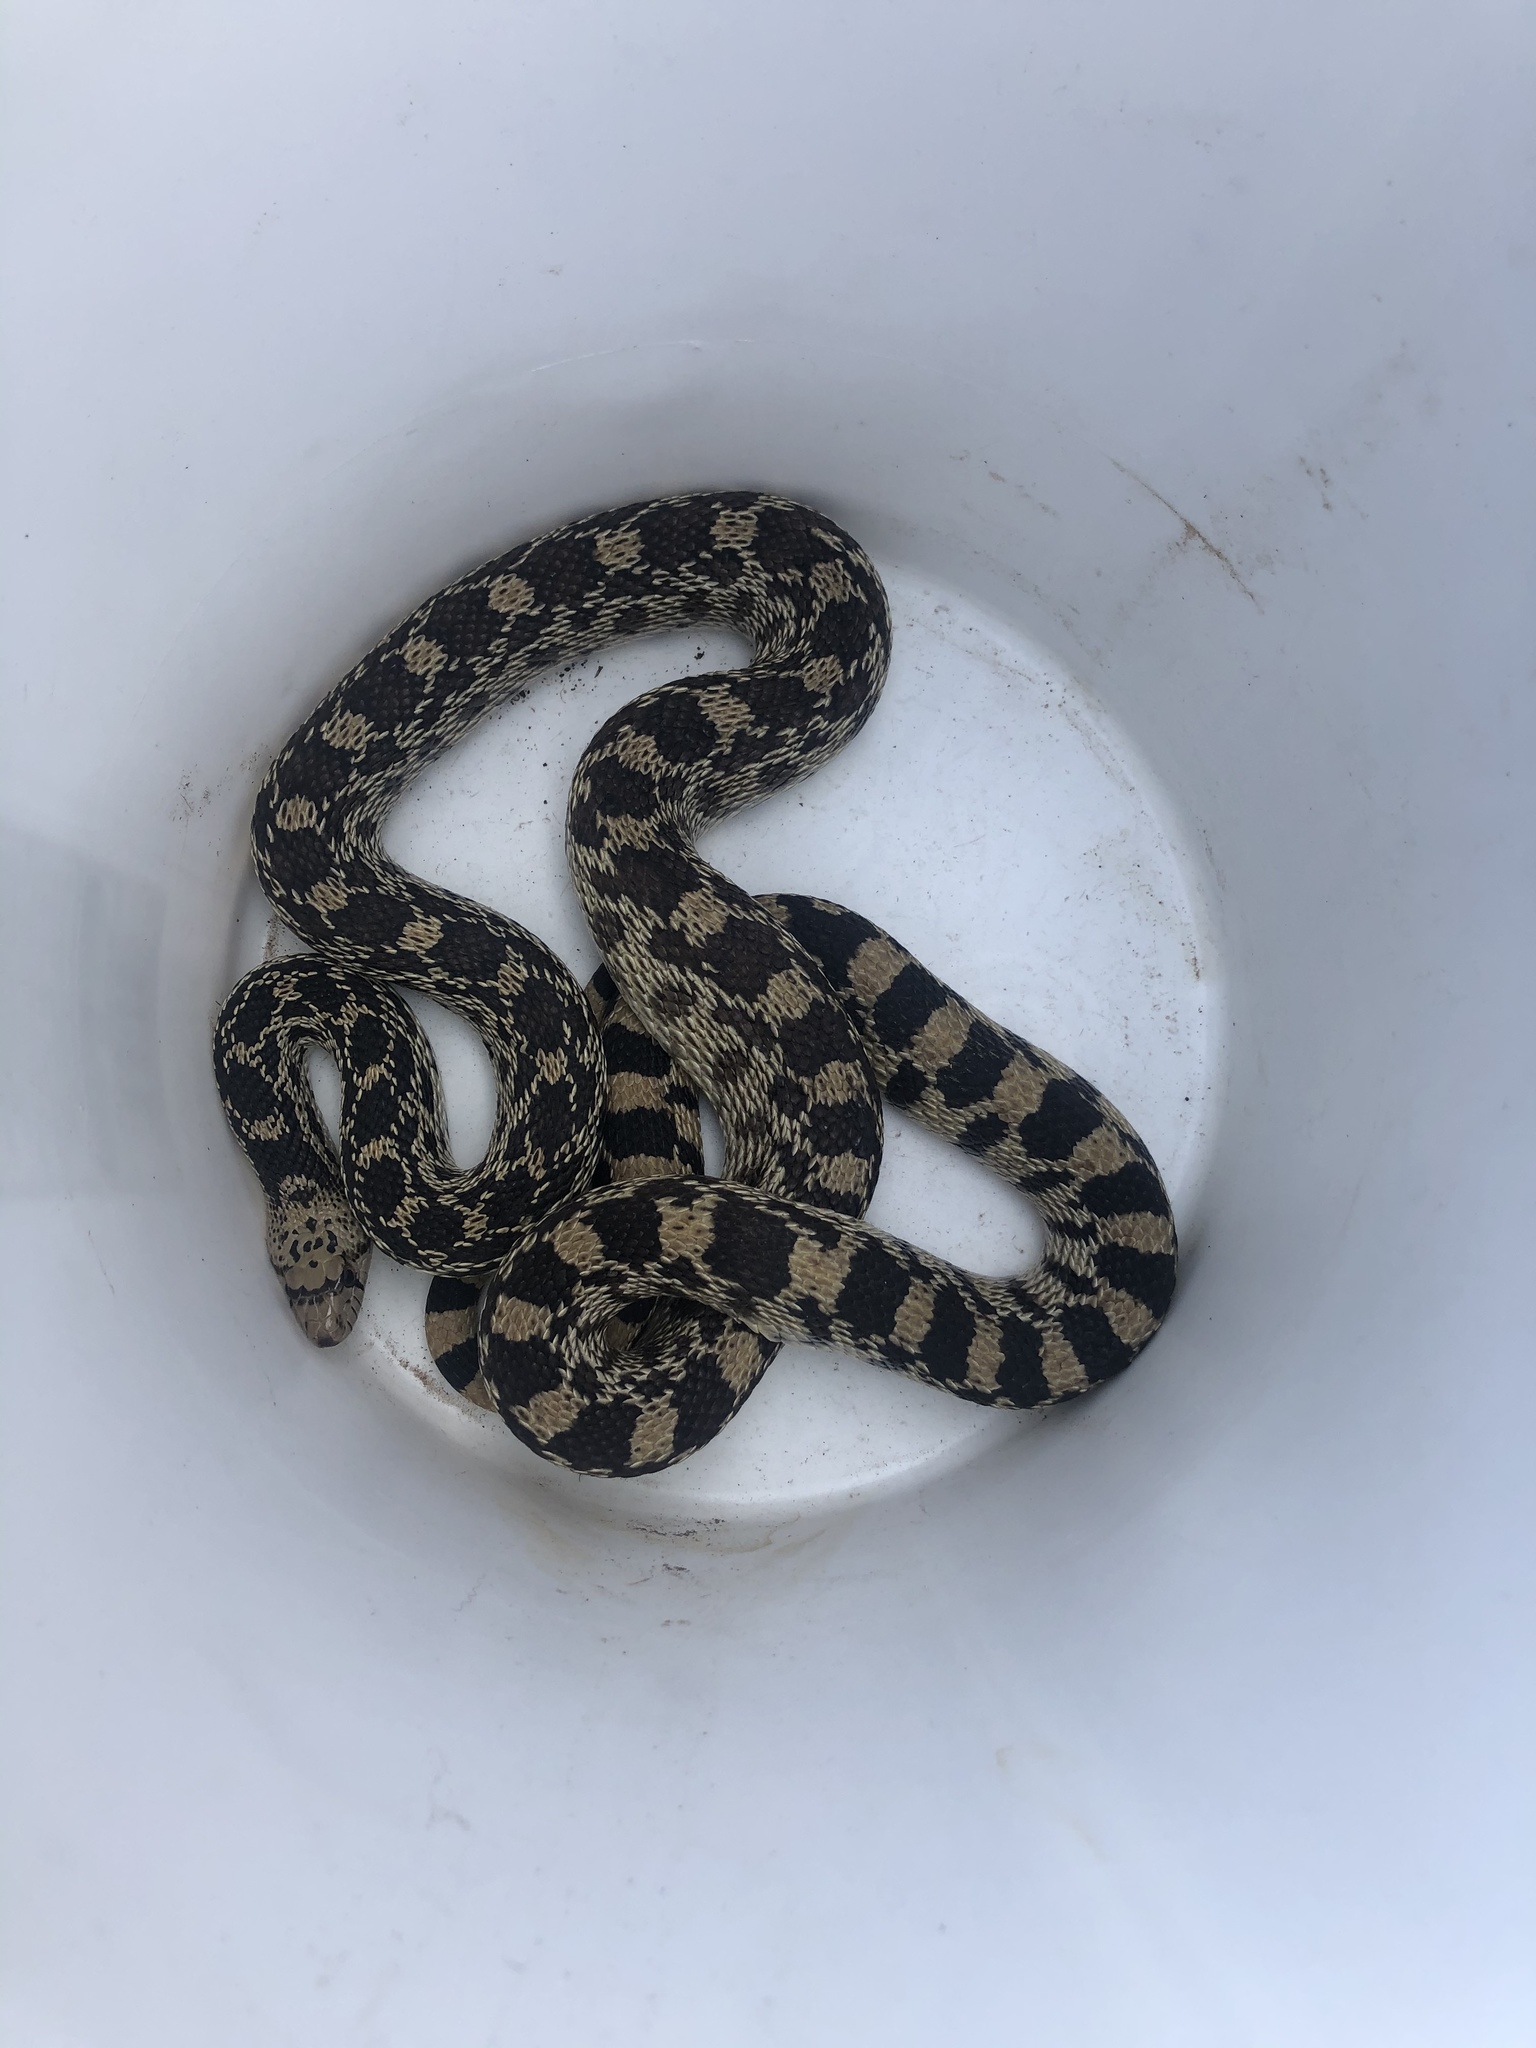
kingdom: Animalia
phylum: Chordata
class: Squamata
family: Colubridae
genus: Pituophis
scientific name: Pituophis catenifer
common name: Gopher snake
